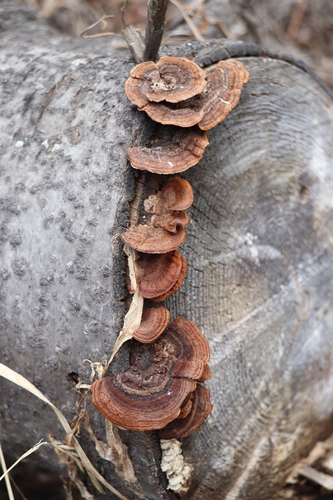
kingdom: Fungi
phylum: Basidiomycota
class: Agaricomycetes
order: Gloeophyllales
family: Gloeophyllaceae
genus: Gloeophyllum
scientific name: Gloeophyllum sepiarium
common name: Conifer mazegill
